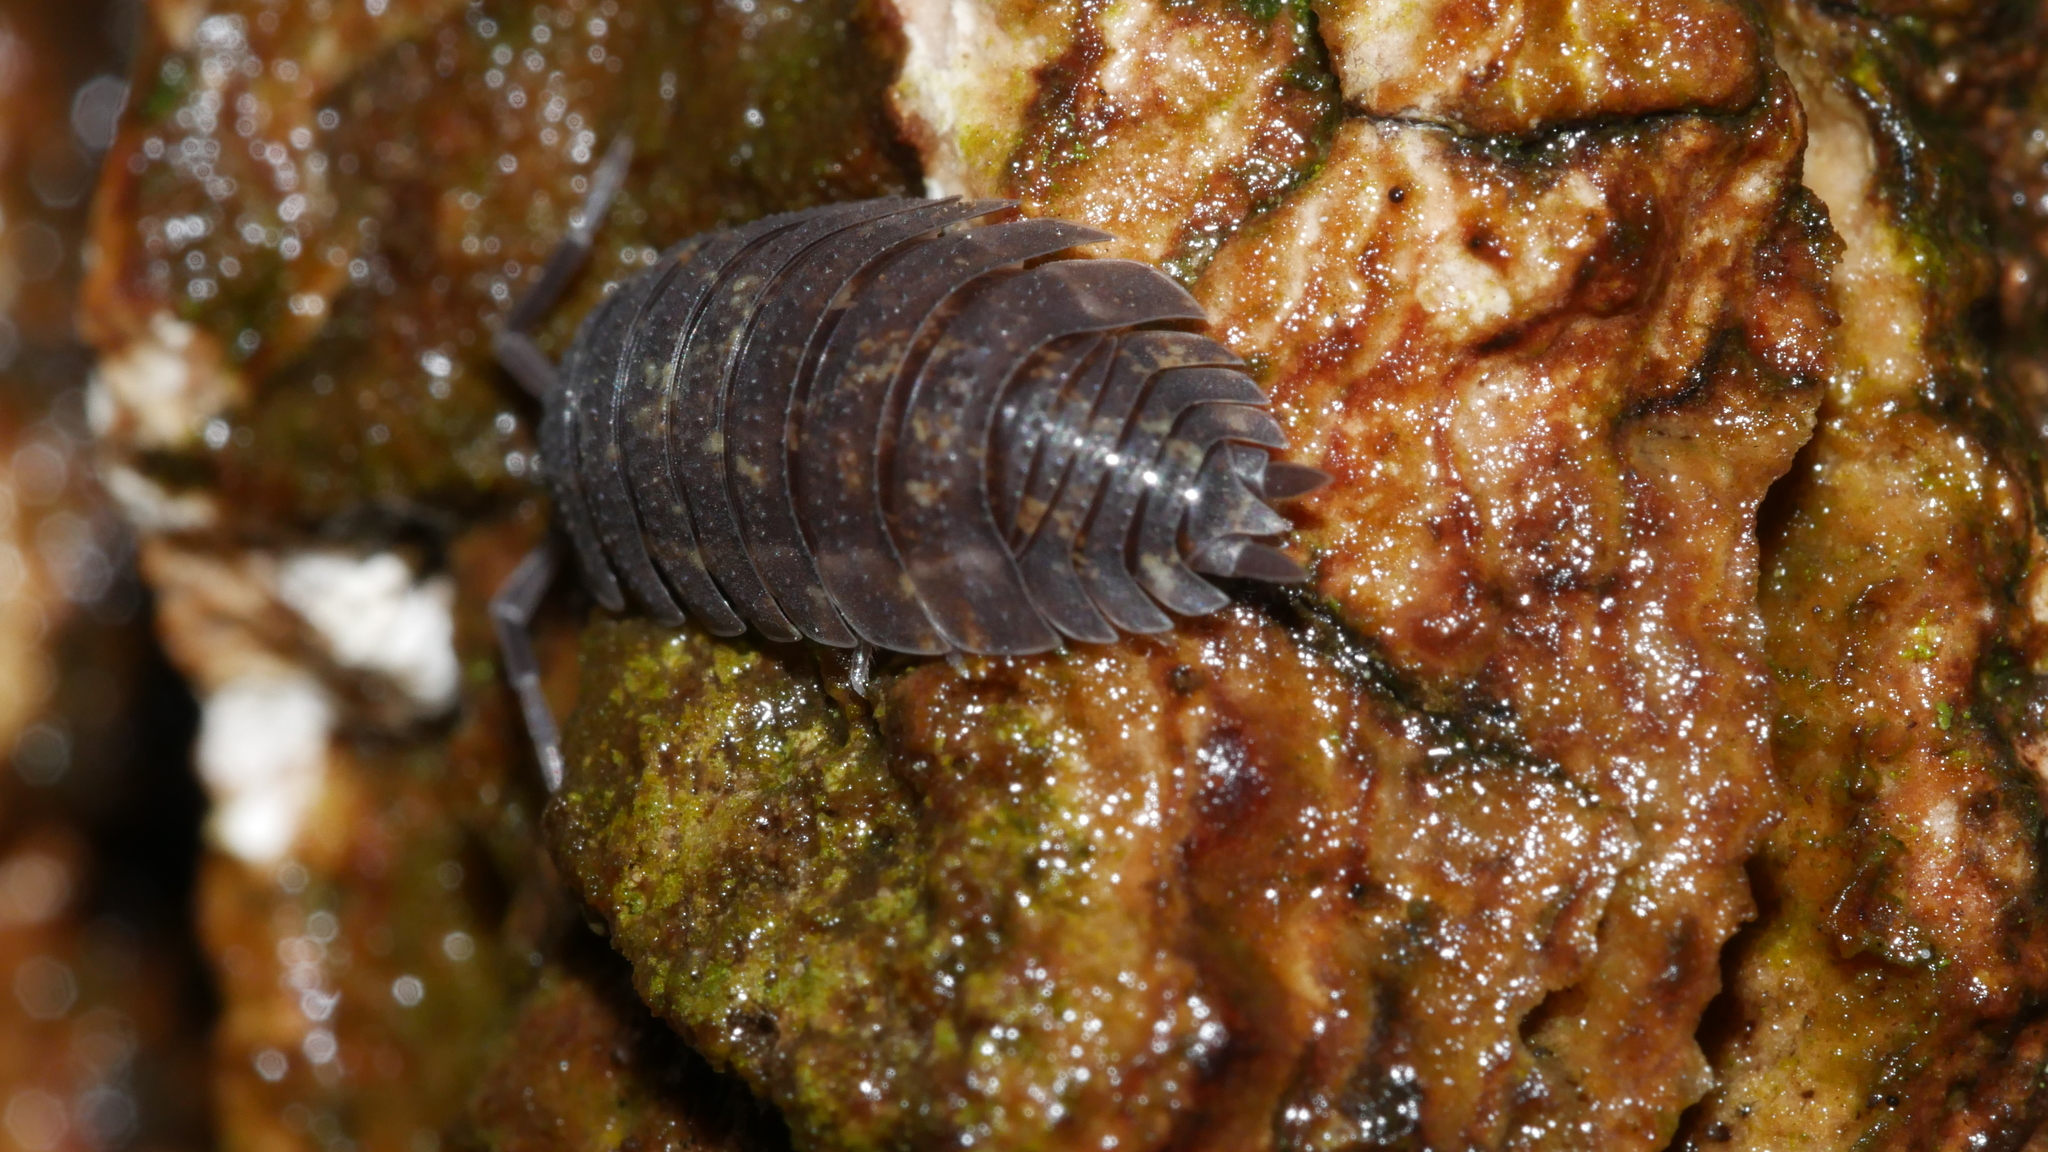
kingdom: Animalia
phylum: Arthropoda
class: Malacostraca
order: Isopoda
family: Porcellionidae
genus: Porcellio
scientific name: Porcellio scaber
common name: Common rough woodlouse
